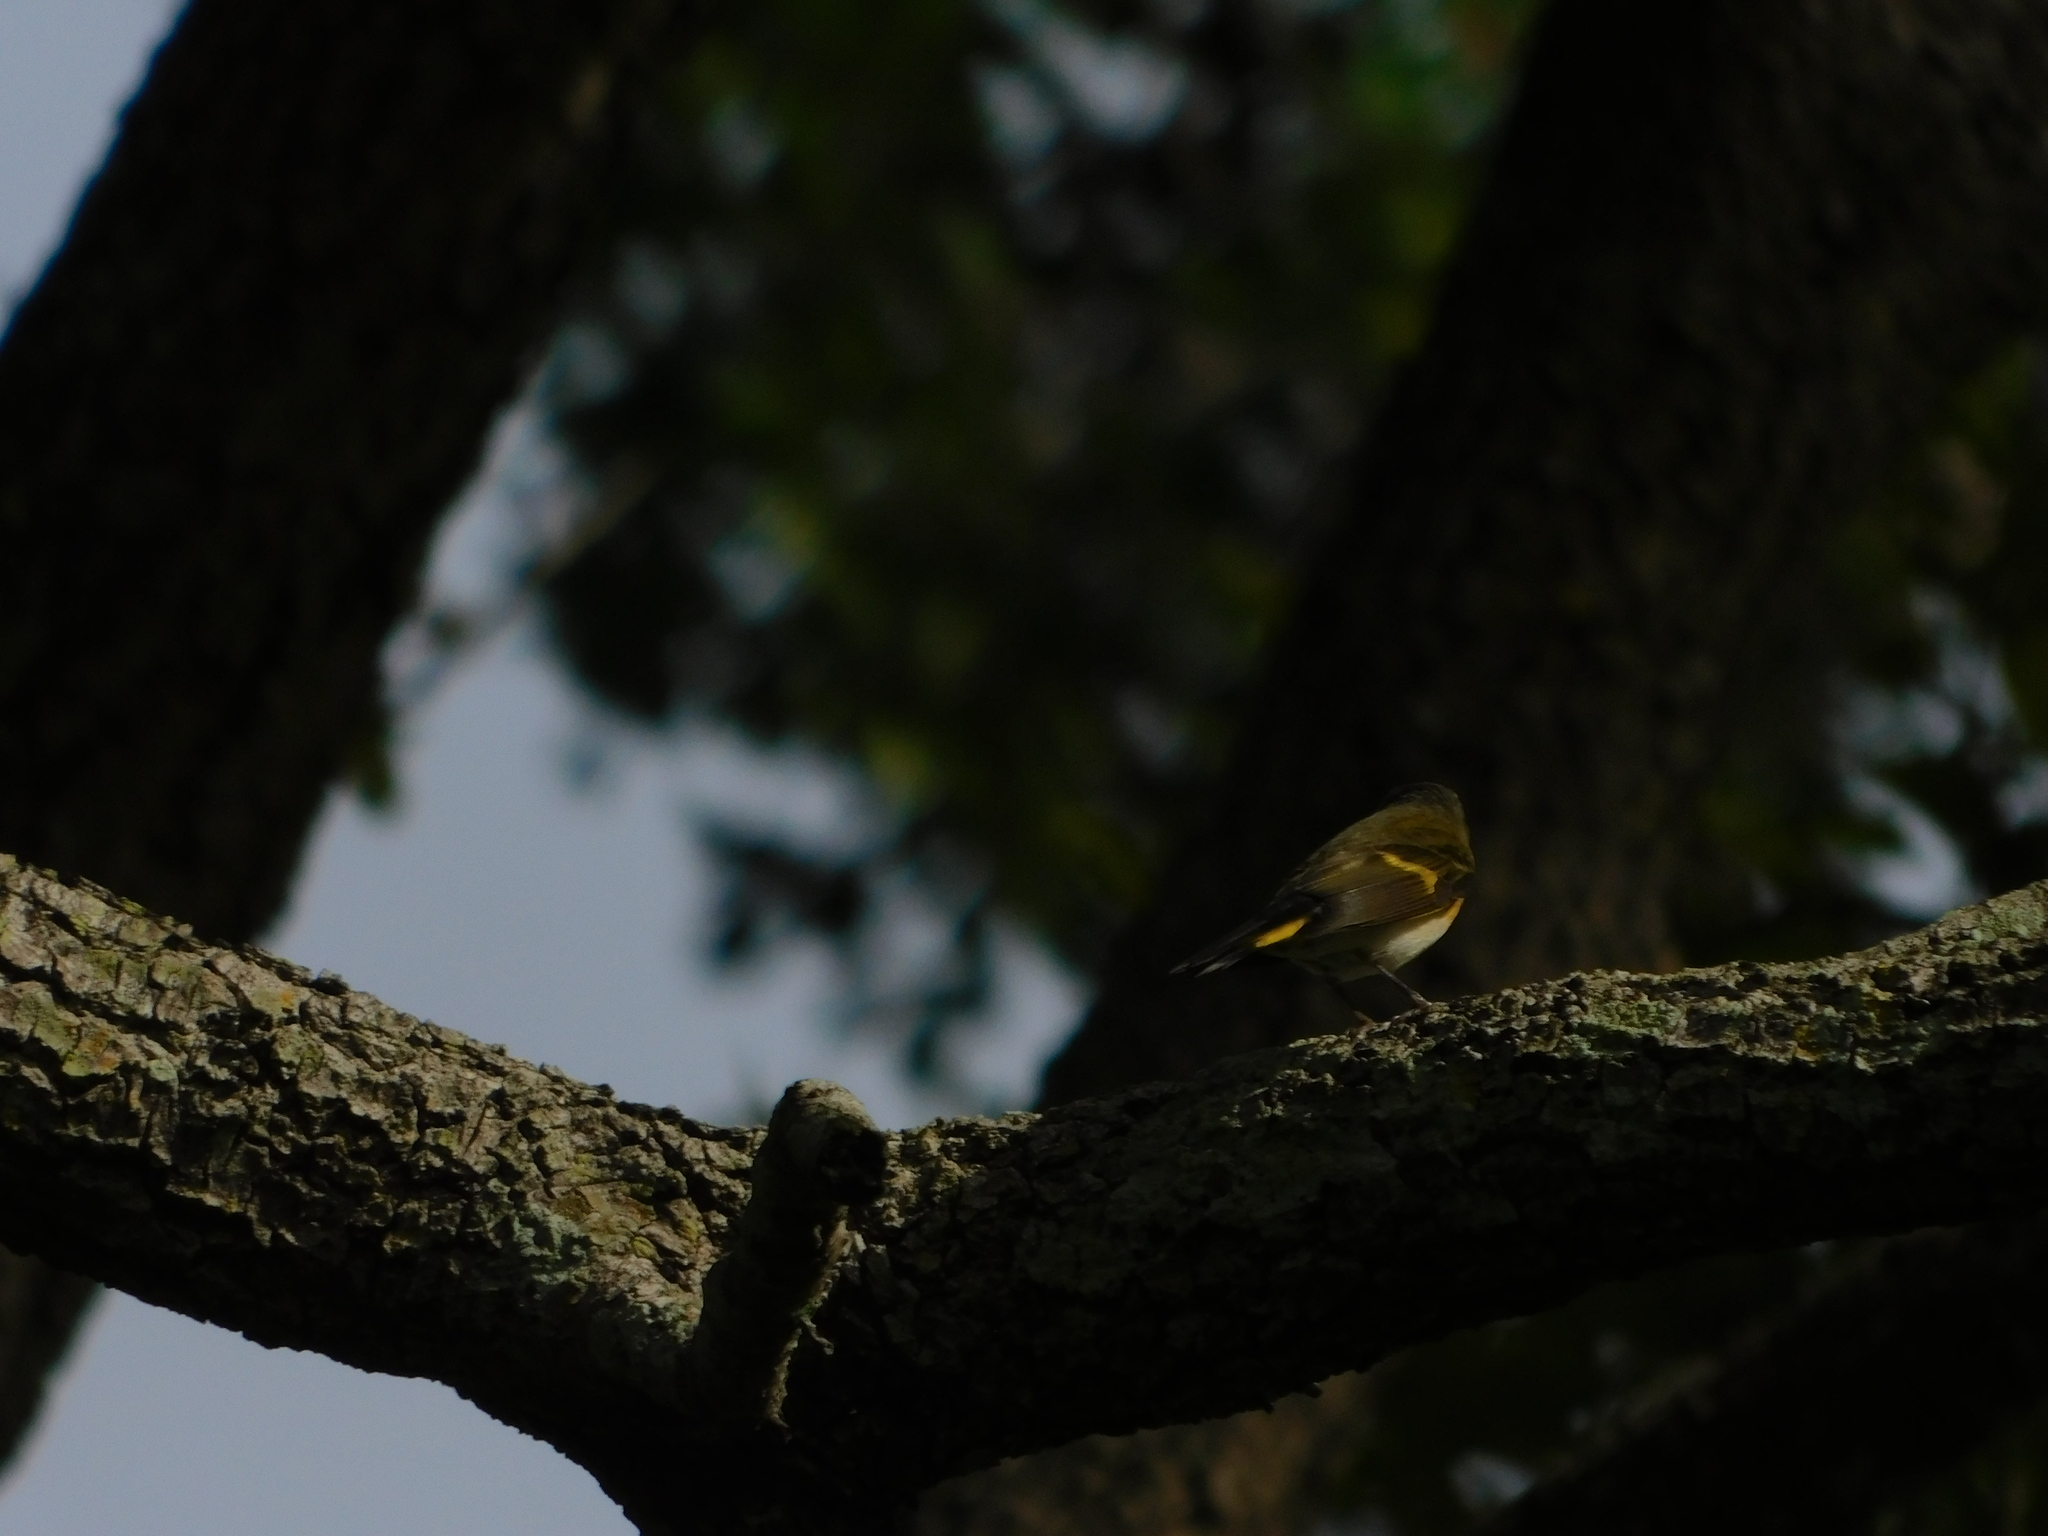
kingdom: Animalia
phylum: Chordata
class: Aves
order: Passeriformes
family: Parulidae
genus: Setophaga
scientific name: Setophaga ruticilla
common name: American redstart
